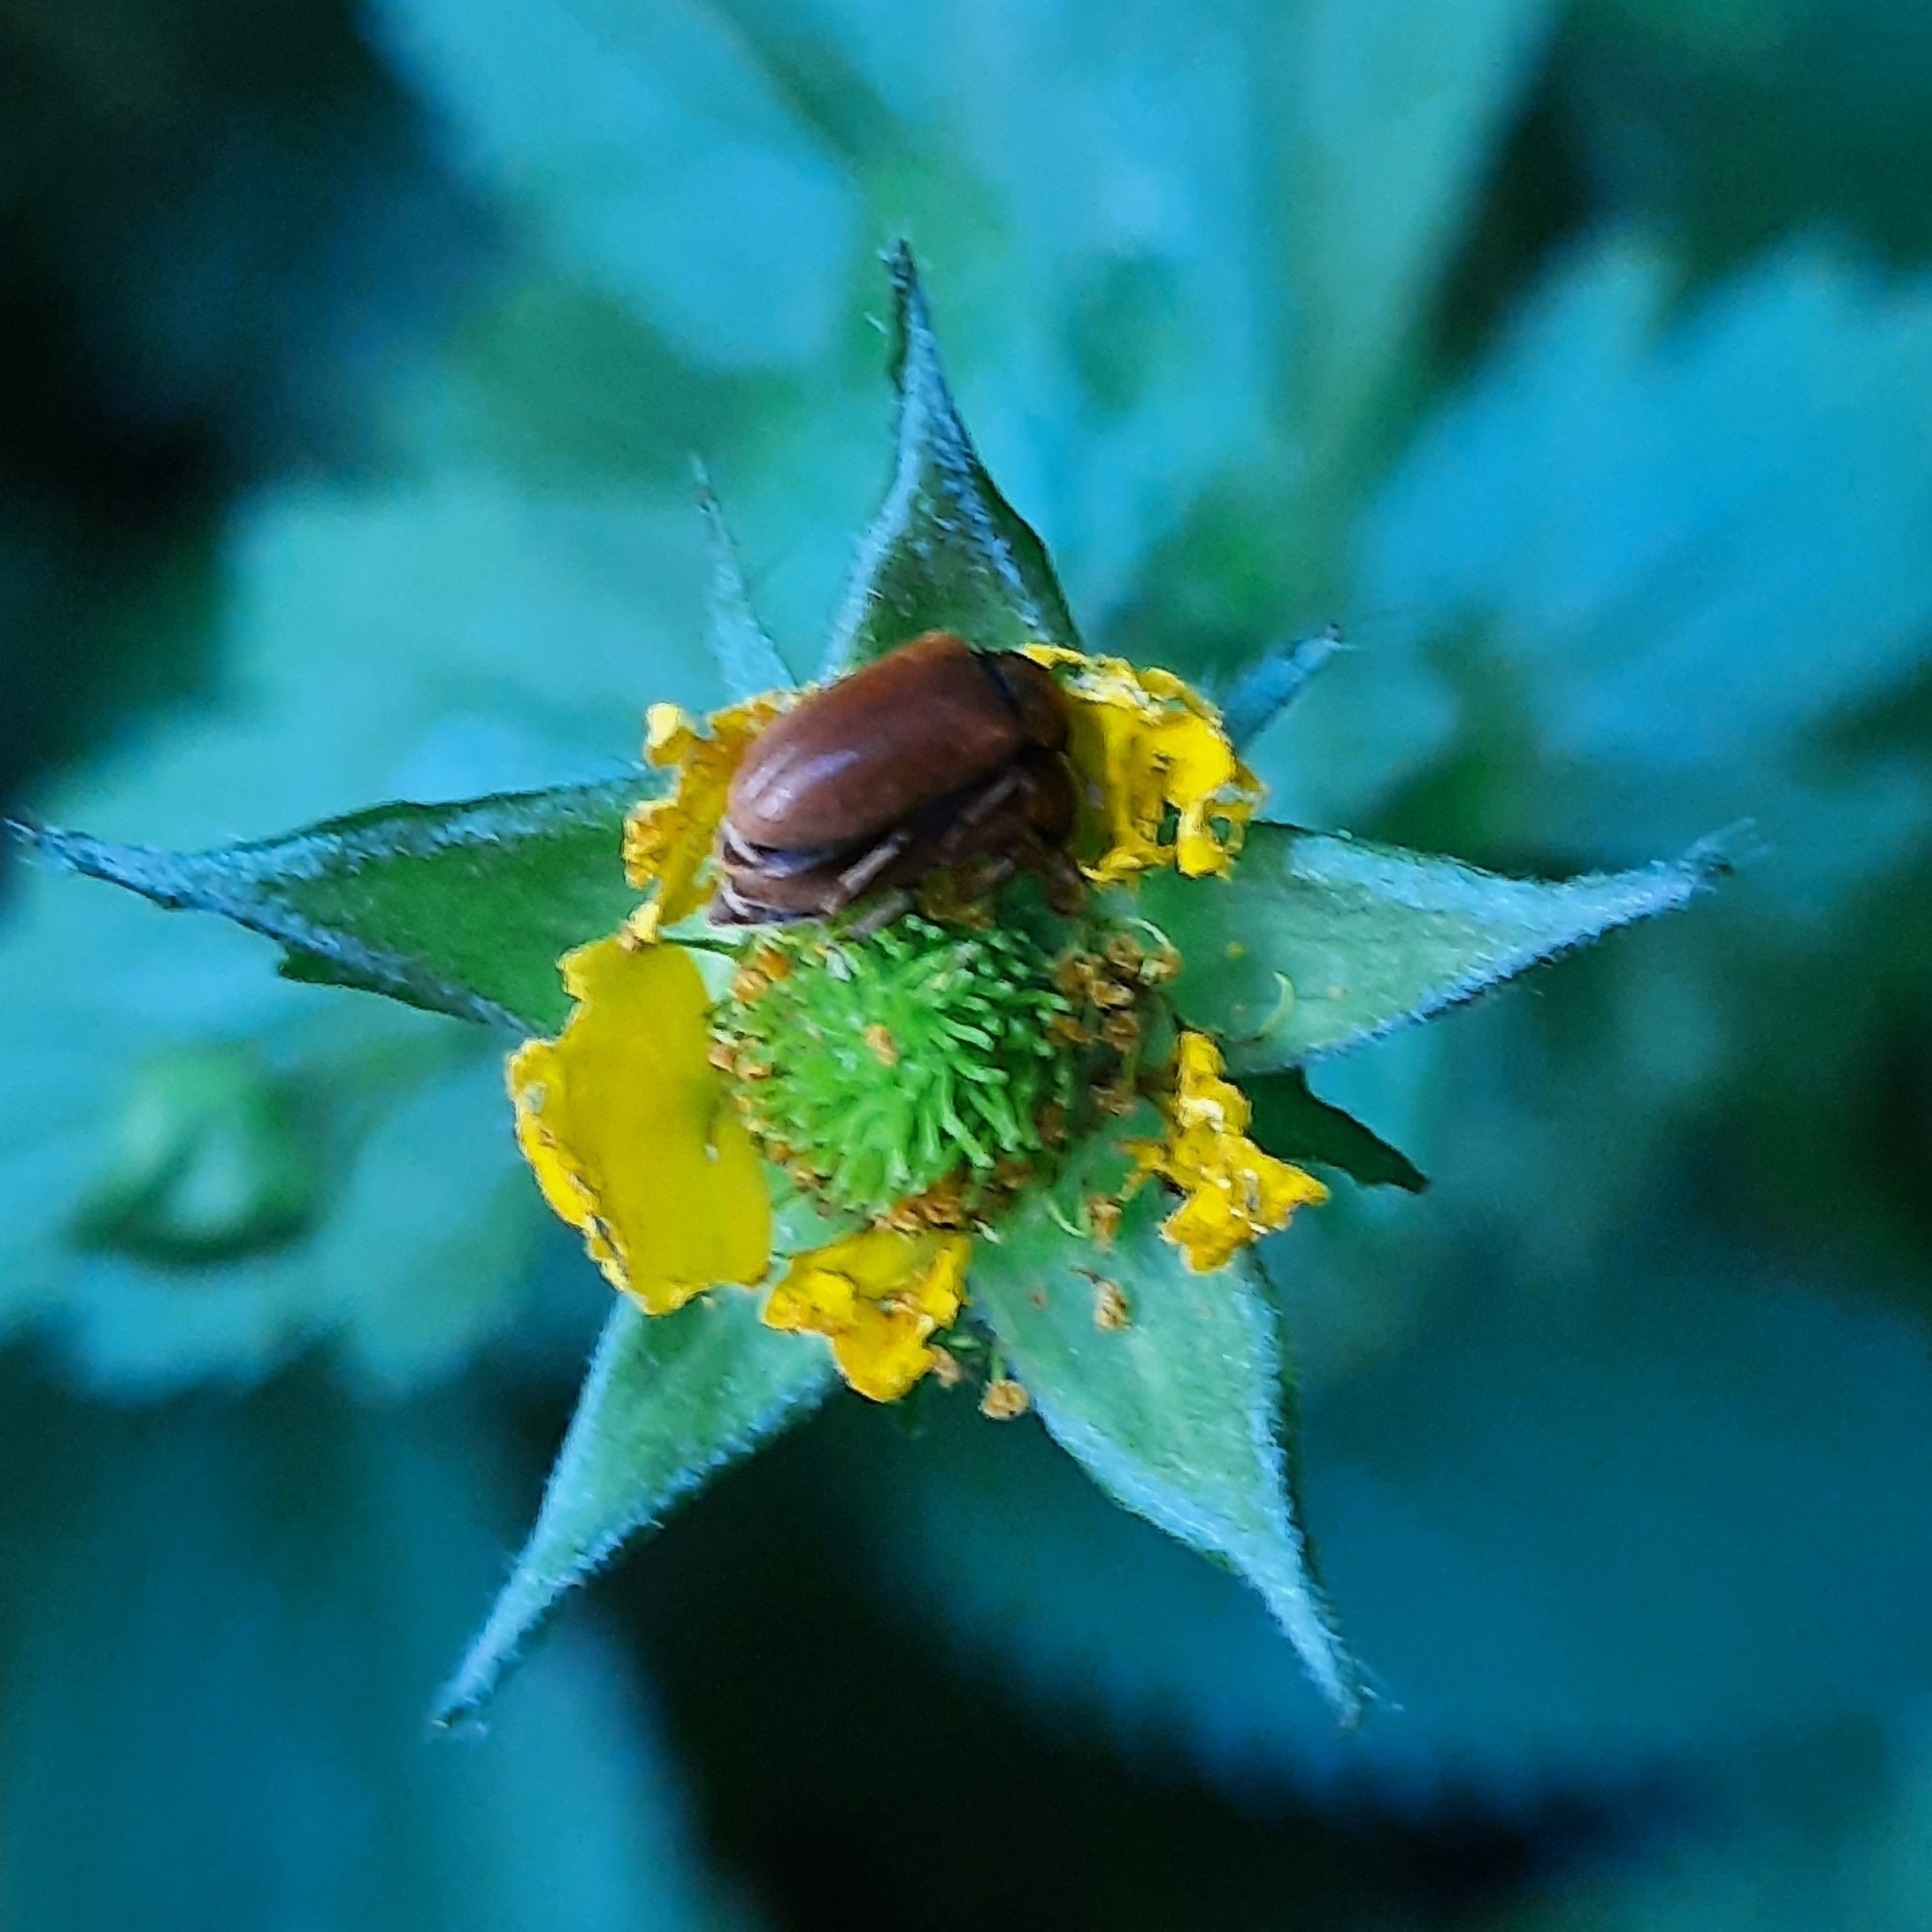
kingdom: Plantae
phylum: Tracheophyta
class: Magnoliopsida
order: Rosales
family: Rosaceae
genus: Geum
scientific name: Geum urbanum
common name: Wood avens
